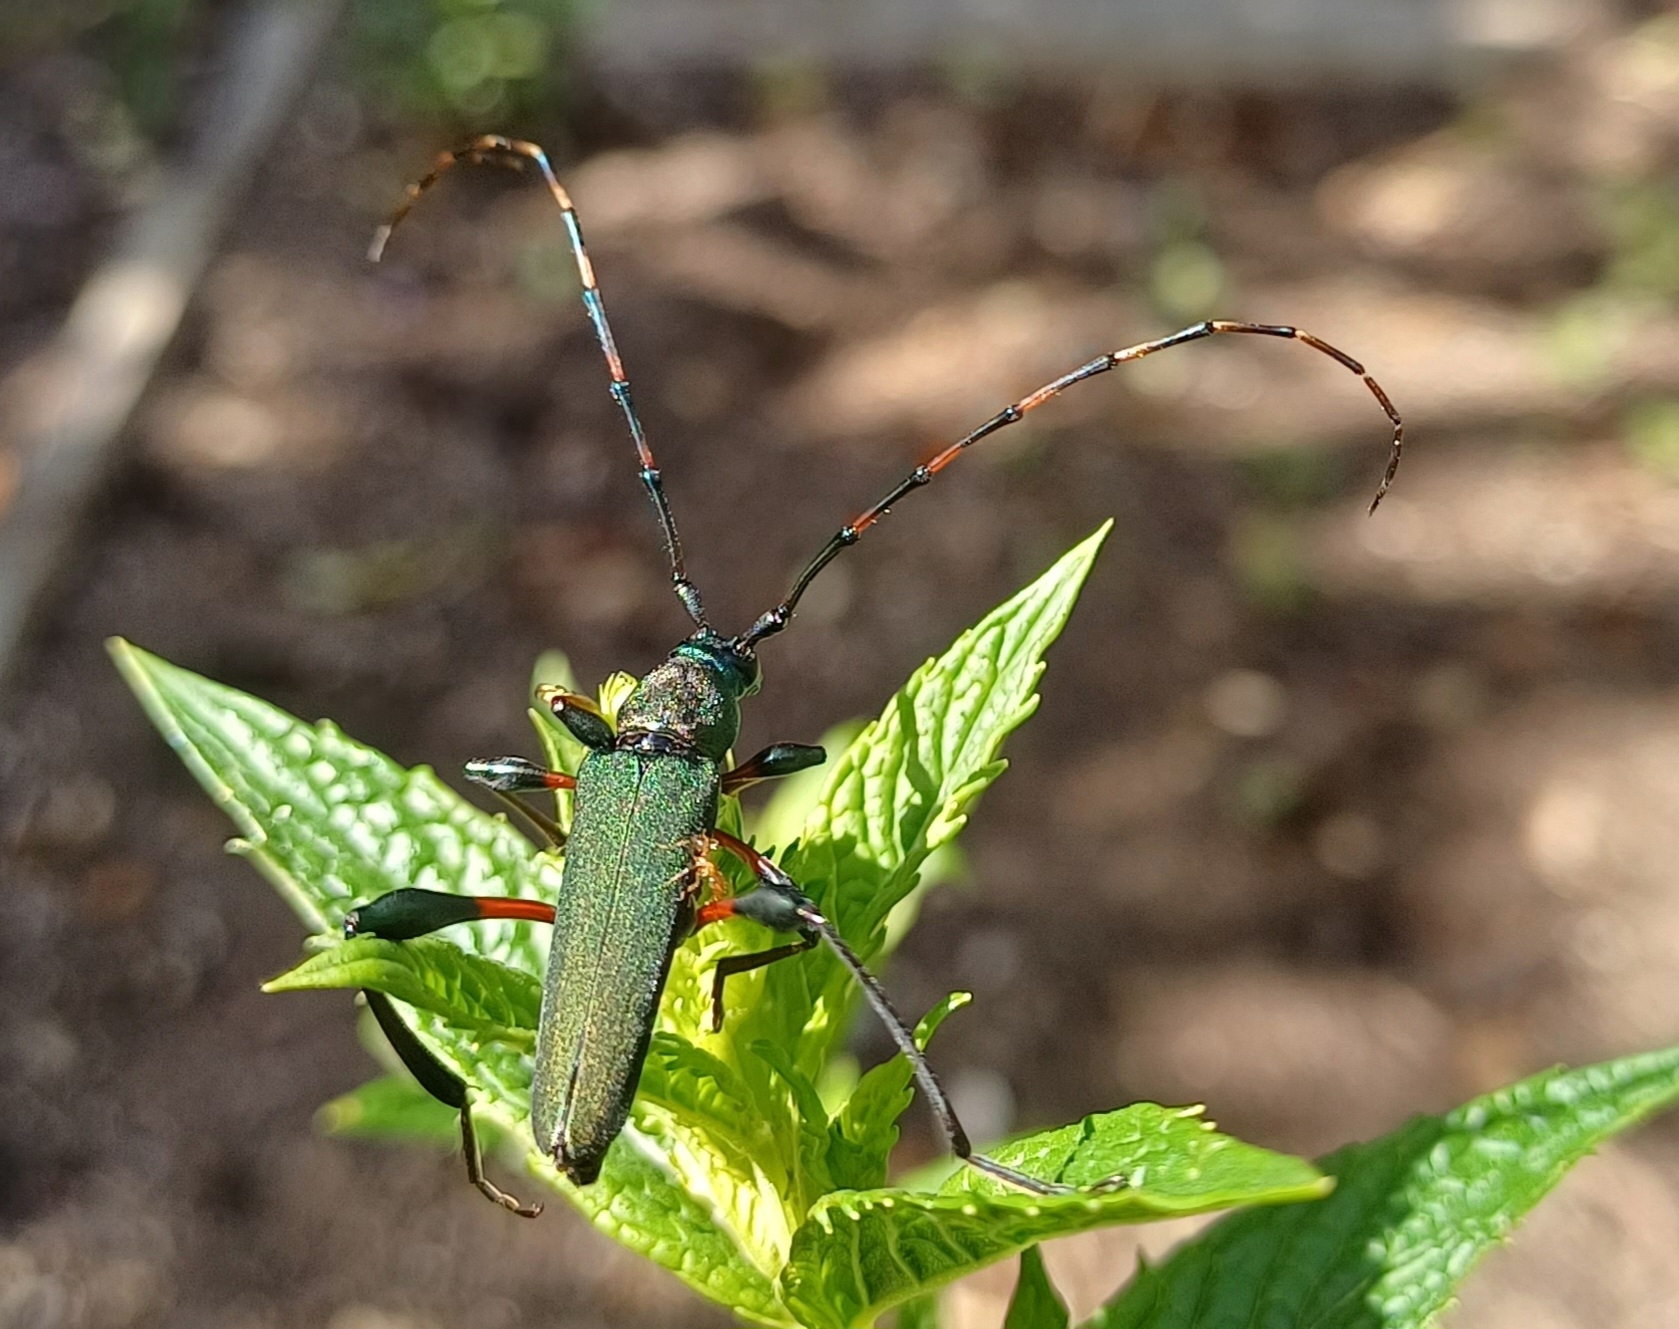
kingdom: Animalia
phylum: Arthropoda
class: Insecta
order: Coleoptera
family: Cerambycidae
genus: Litopus
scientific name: Litopus latipes
